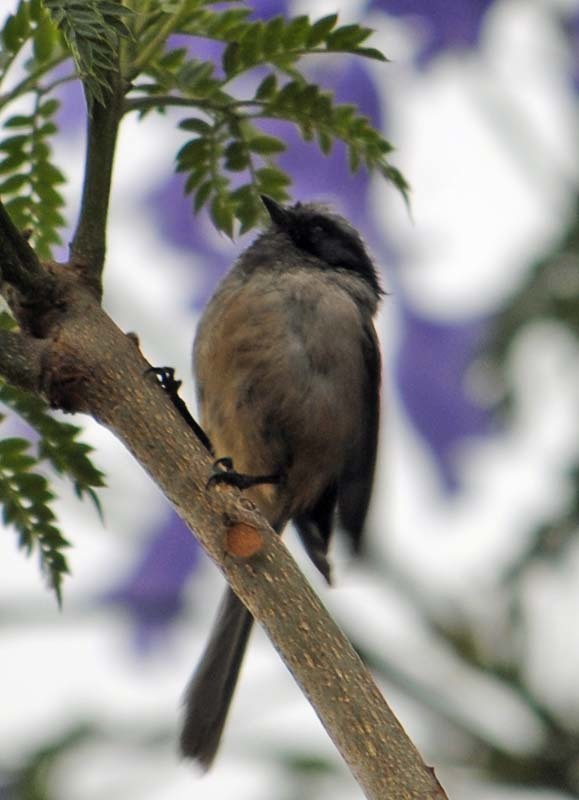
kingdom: Animalia
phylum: Chordata
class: Aves
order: Passeriformes
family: Aegithalidae
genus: Psaltriparus
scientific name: Psaltriparus minimus
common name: American bushtit
